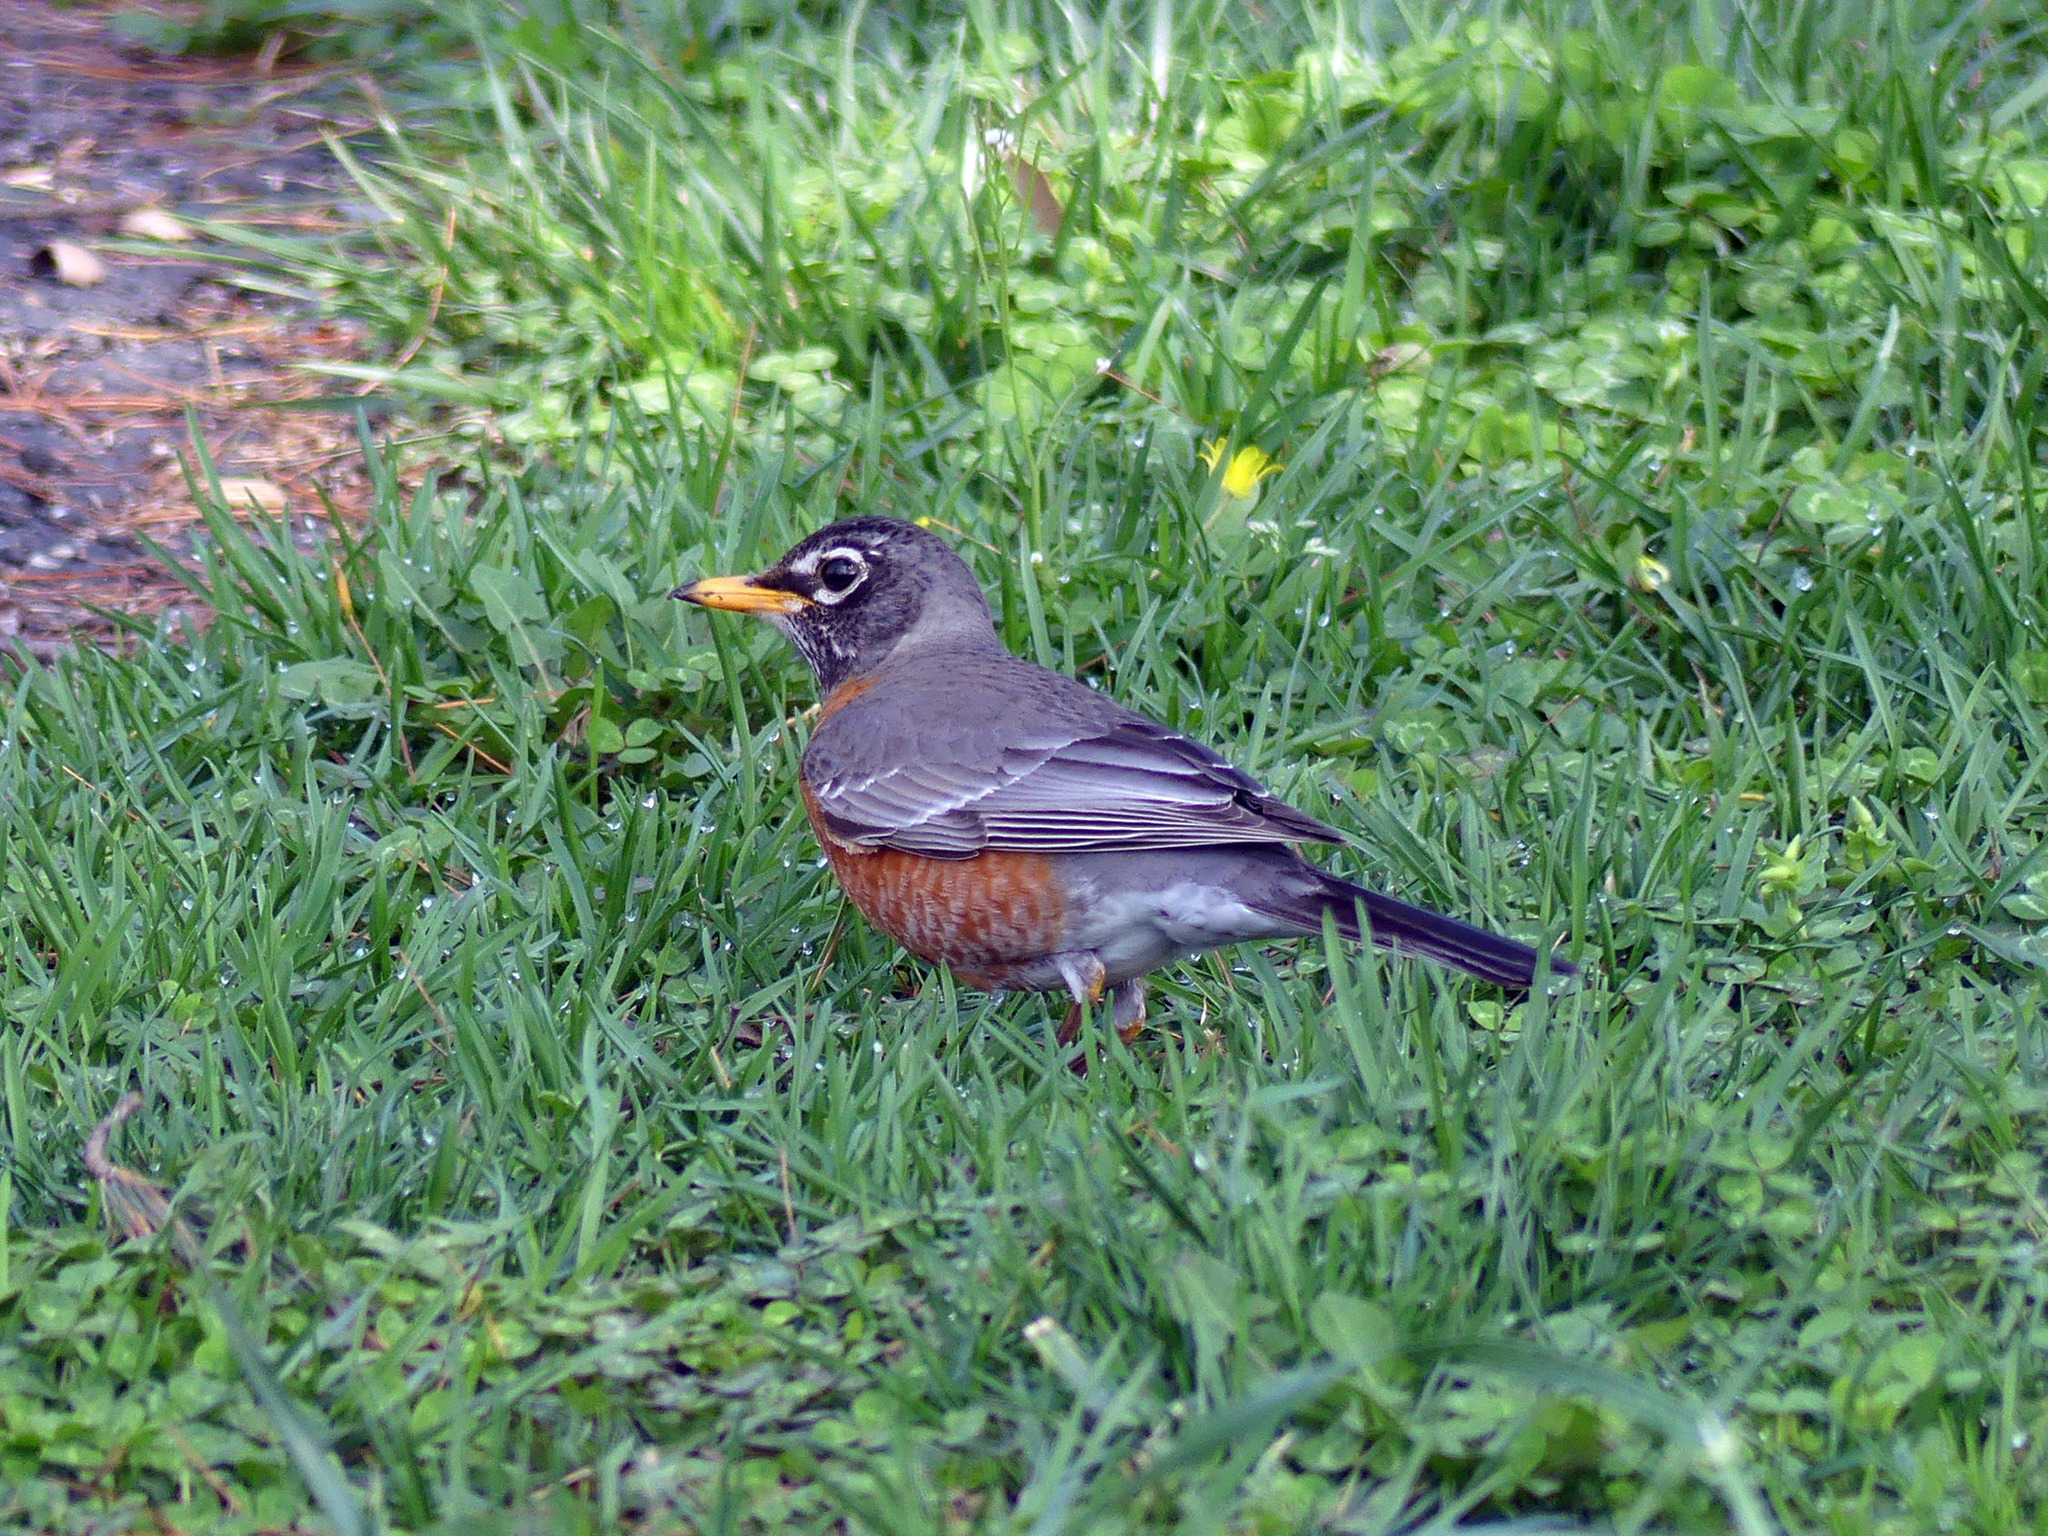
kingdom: Animalia
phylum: Chordata
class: Aves
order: Passeriformes
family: Turdidae
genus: Turdus
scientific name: Turdus migratorius
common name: American robin
